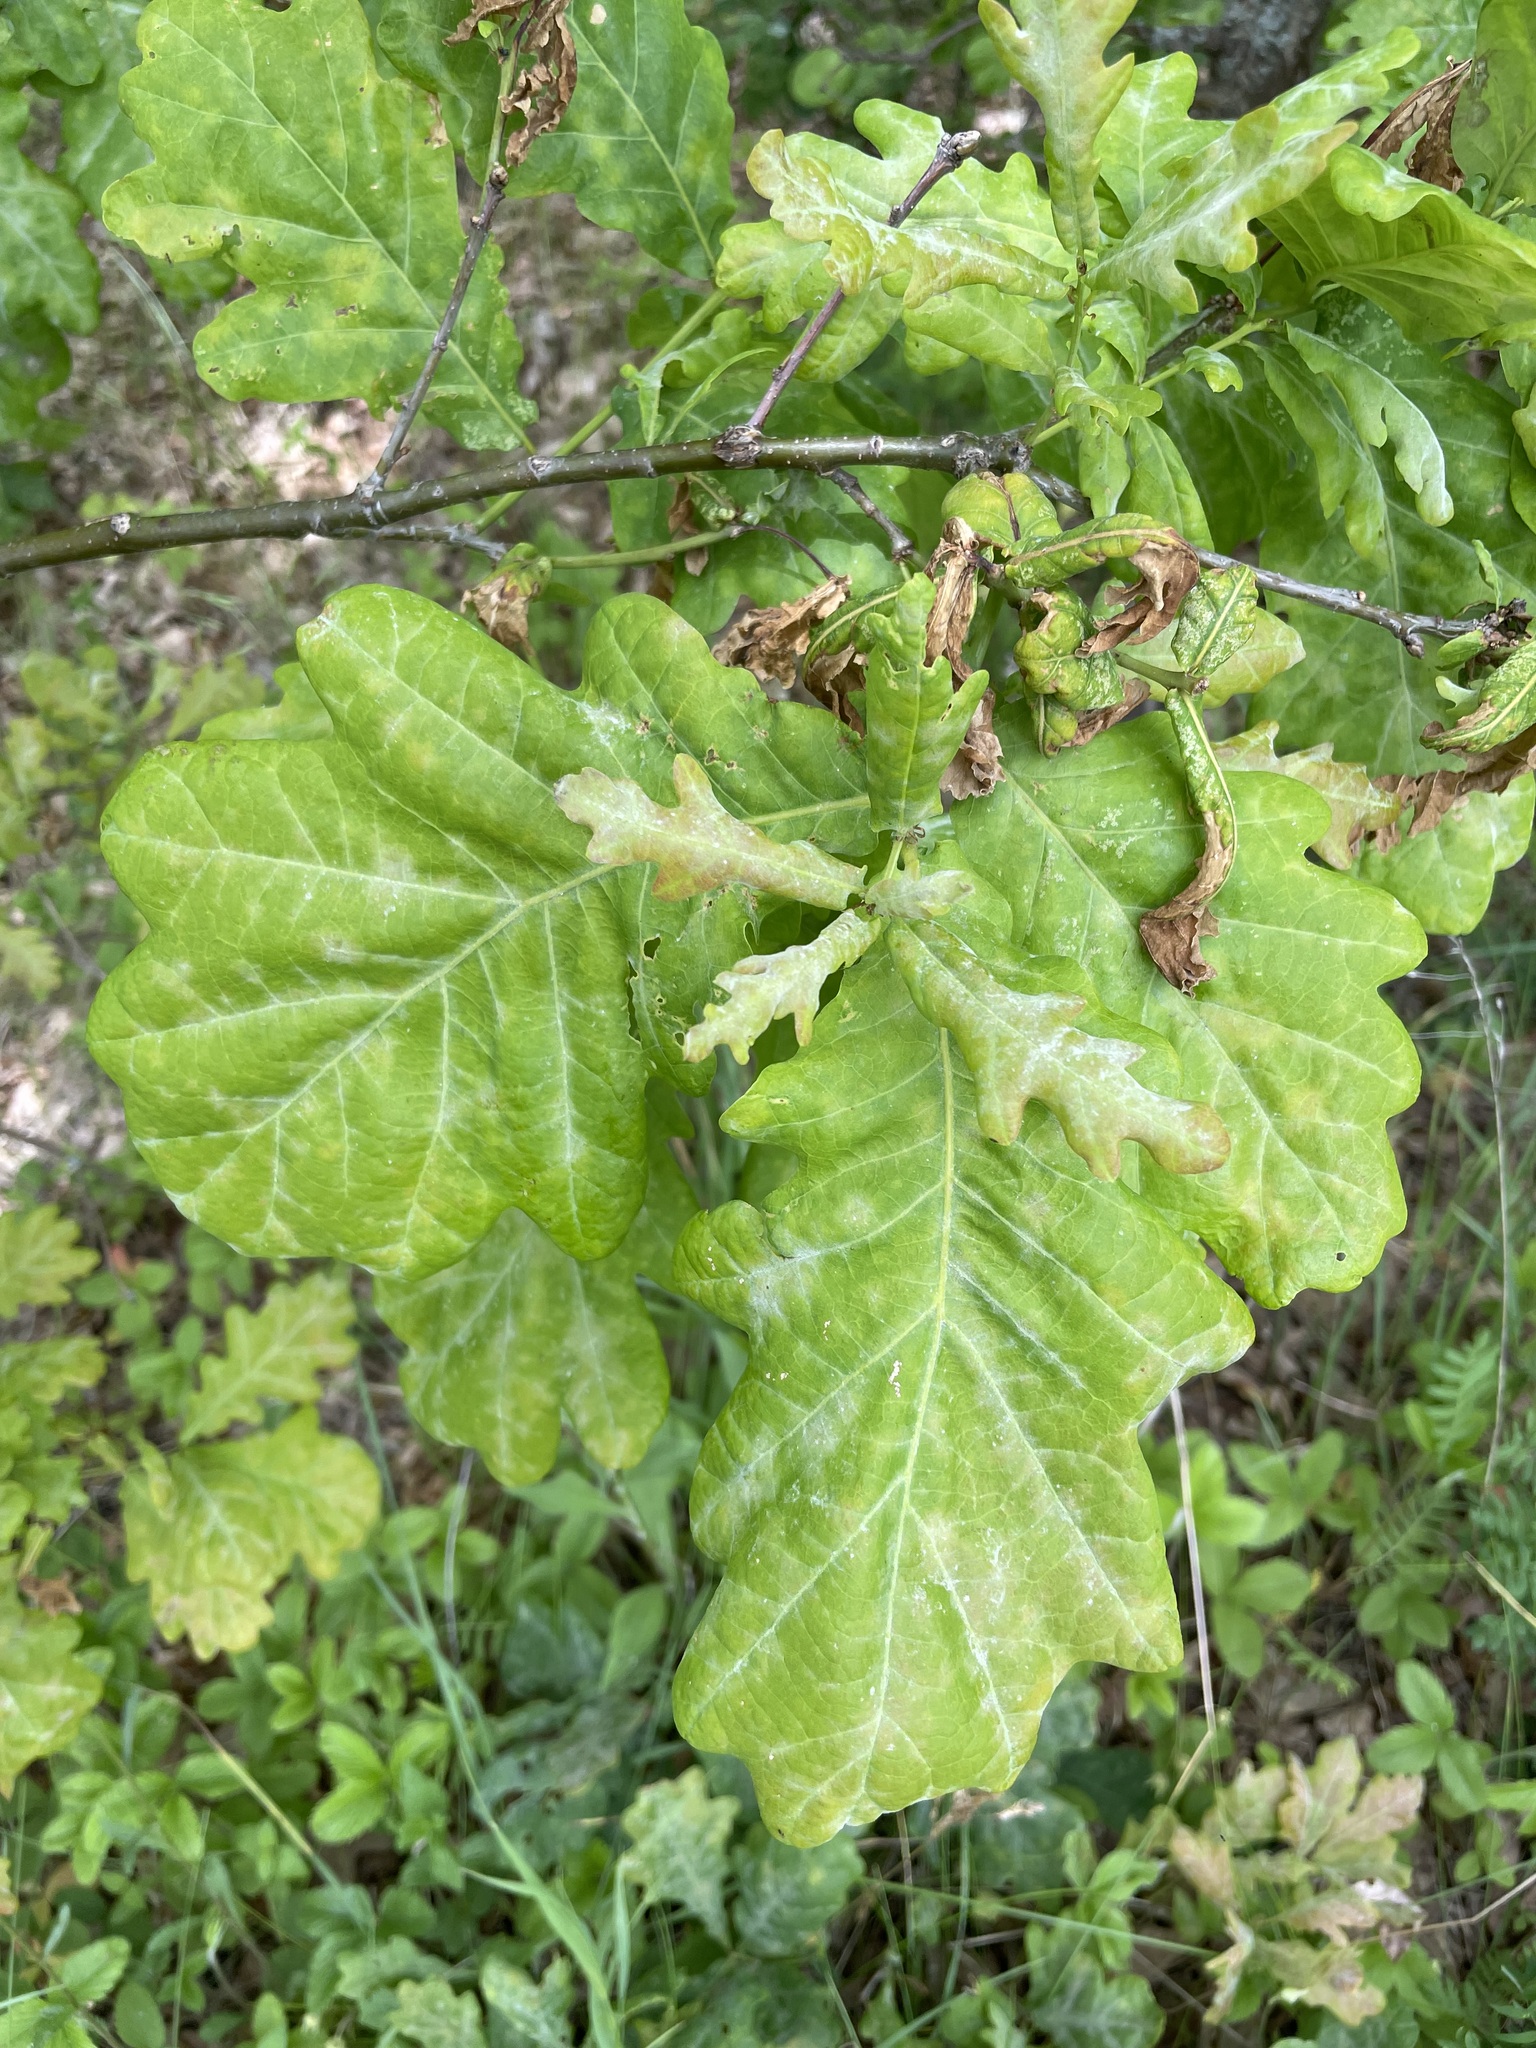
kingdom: Plantae
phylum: Tracheophyta
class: Magnoliopsida
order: Fagales
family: Fagaceae
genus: Quercus
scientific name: Quercus robur
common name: Pedunculate oak
